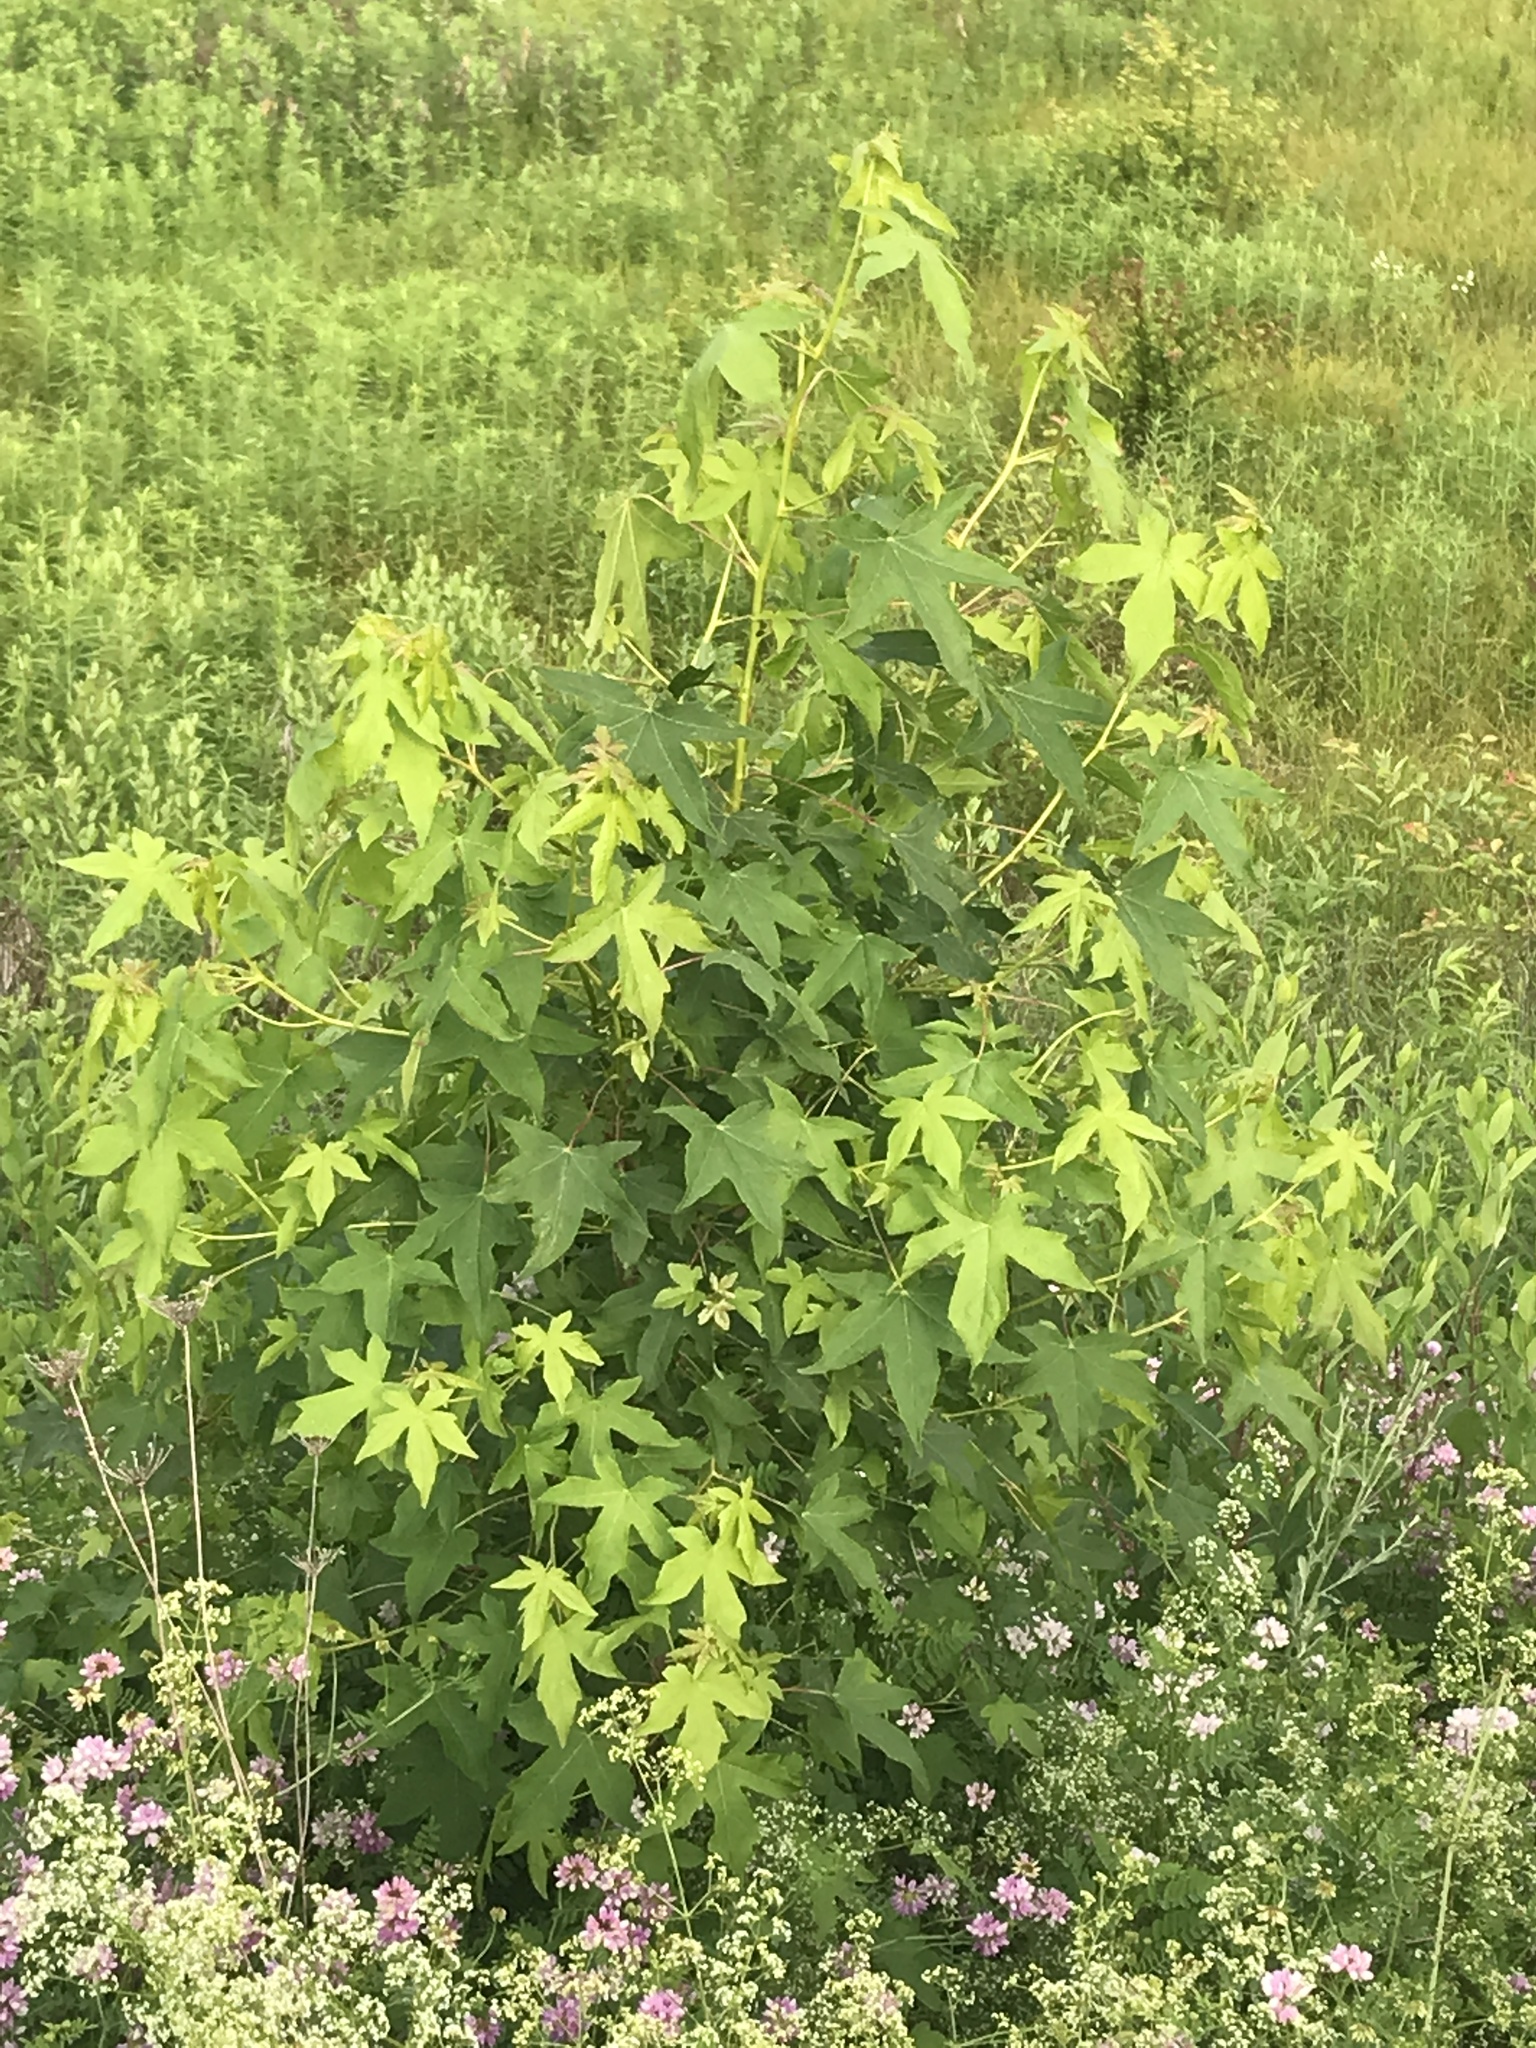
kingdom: Plantae
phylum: Tracheophyta
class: Magnoliopsida
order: Saxifragales
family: Altingiaceae
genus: Liquidambar
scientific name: Liquidambar styraciflua
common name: Sweet gum
